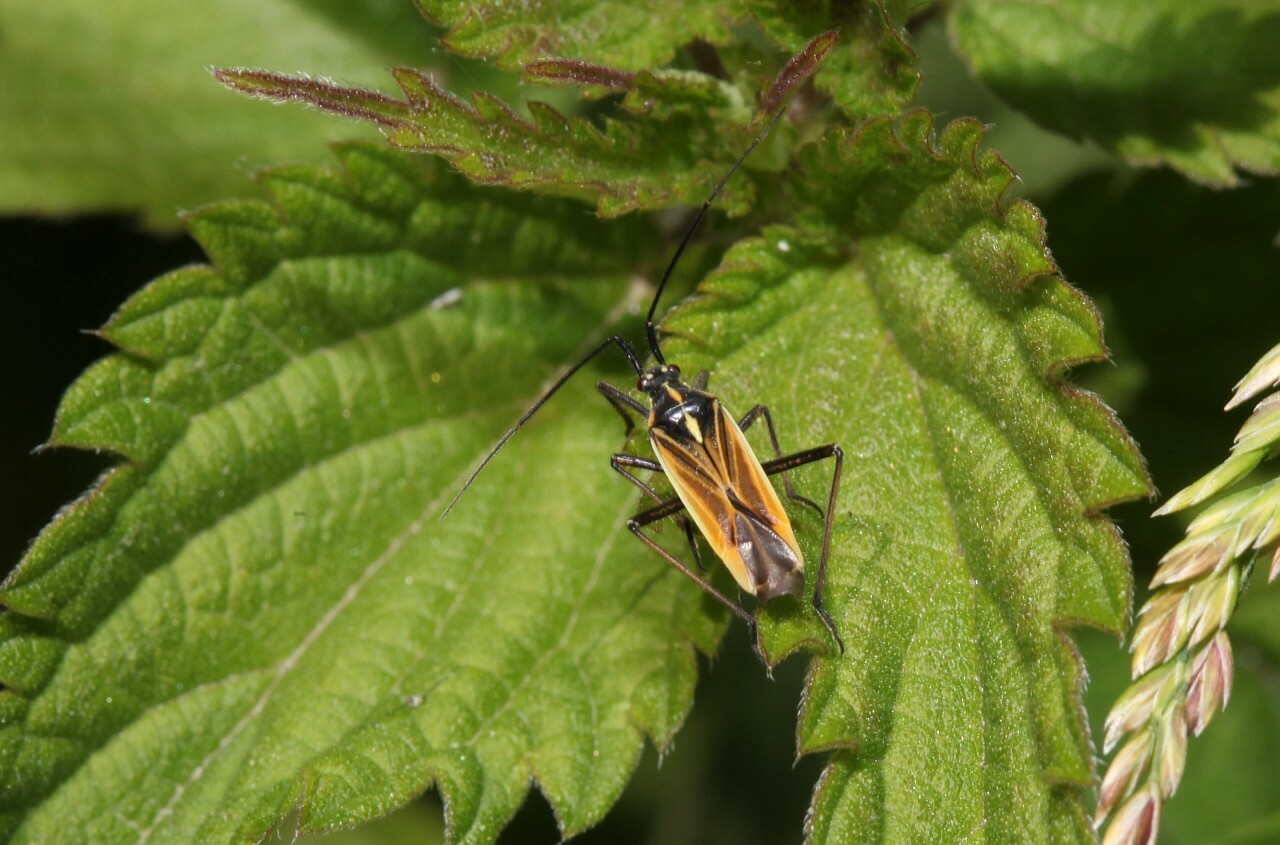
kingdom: Animalia
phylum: Arthropoda
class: Insecta
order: Hemiptera
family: Miridae
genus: Leptopterna
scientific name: Leptopterna dolabrata
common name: Meadow plant bug
